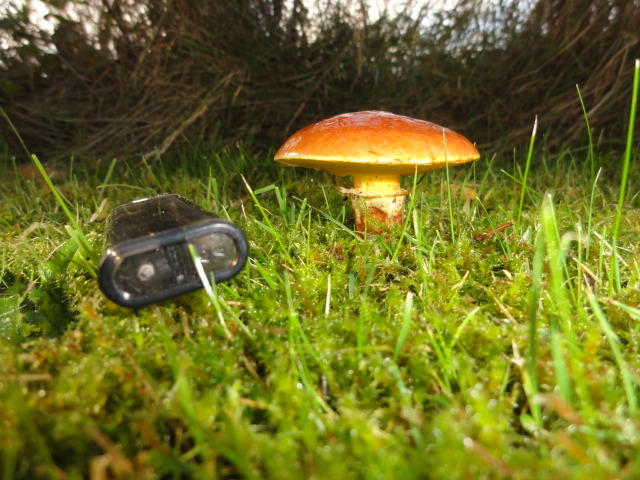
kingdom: Fungi
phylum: Basidiomycota
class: Agaricomycetes
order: Boletales
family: Suillaceae
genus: Suillus
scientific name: Suillus grevillei
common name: Larch bolete
